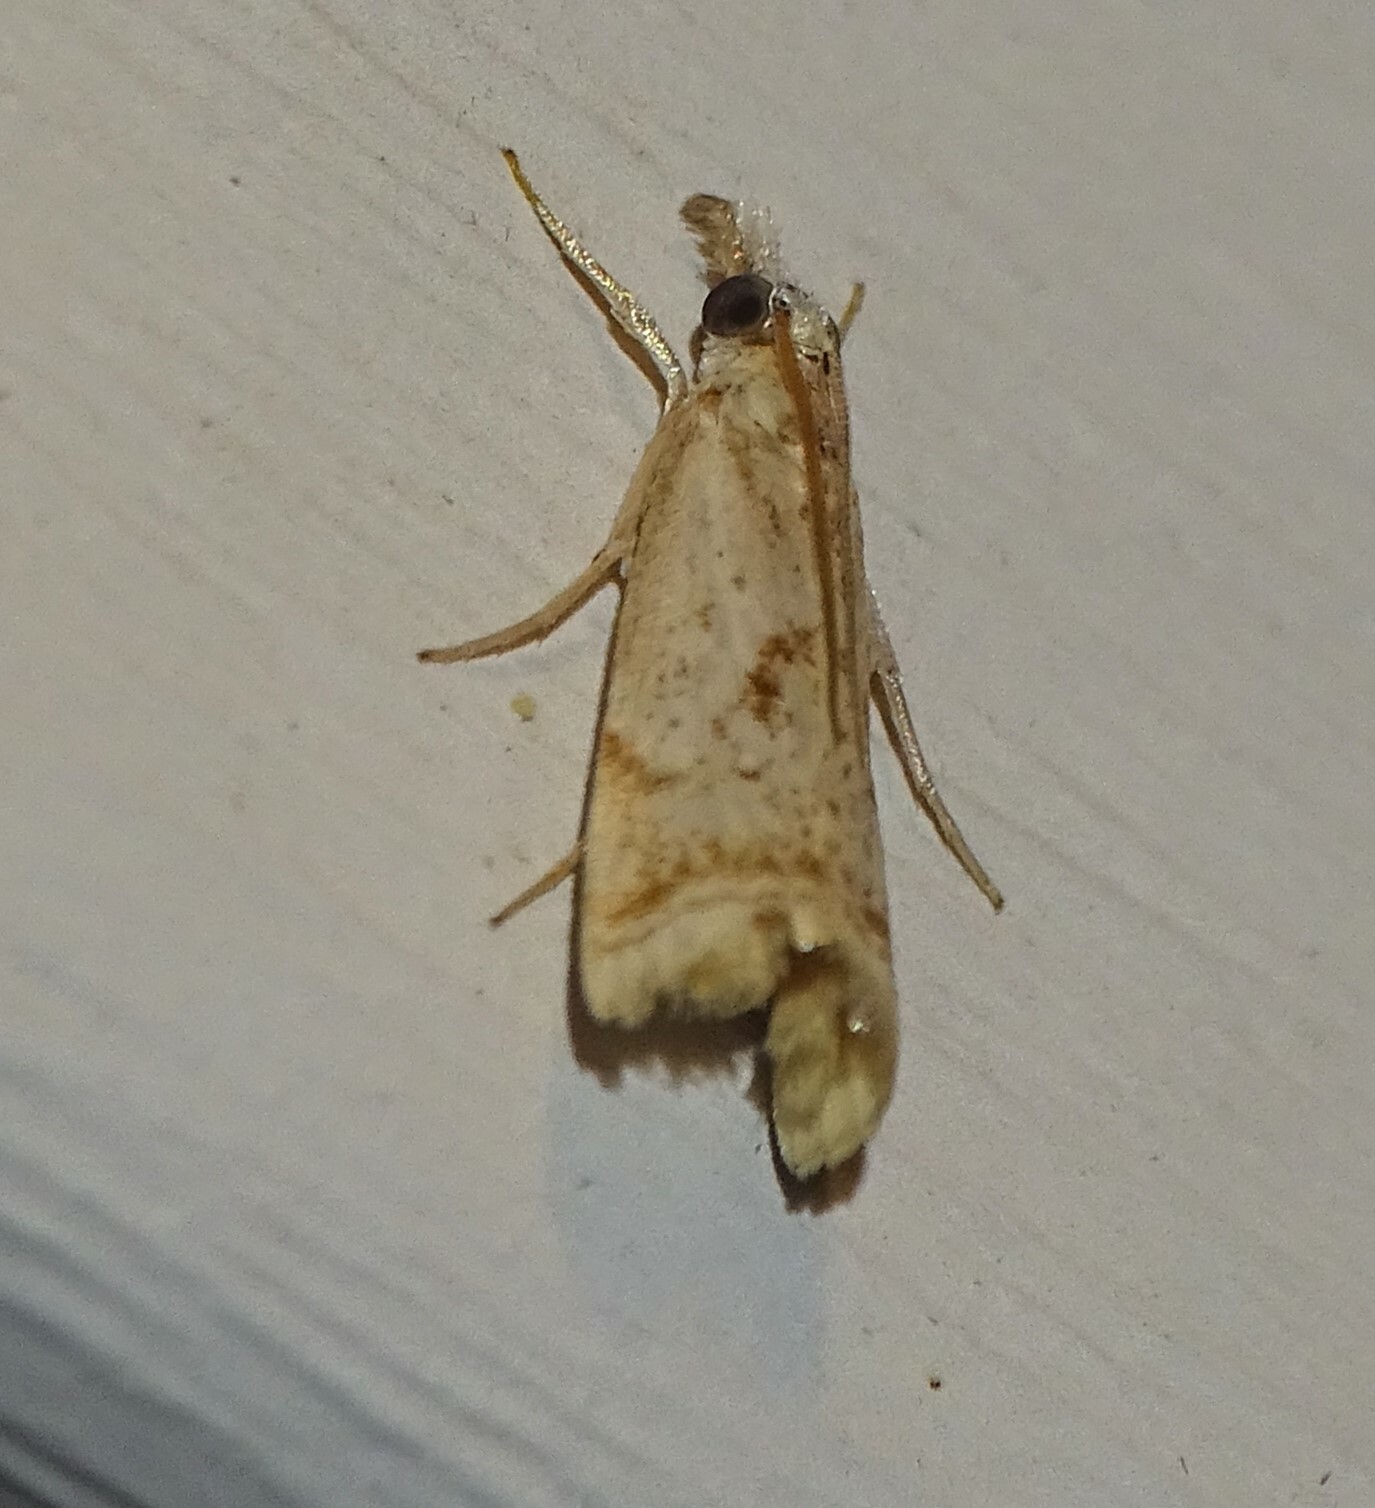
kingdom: Animalia
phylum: Arthropoda
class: Insecta
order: Lepidoptera
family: Crambidae
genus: Microcrambus
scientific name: Microcrambus elegans
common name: Elegant grass-veneer
